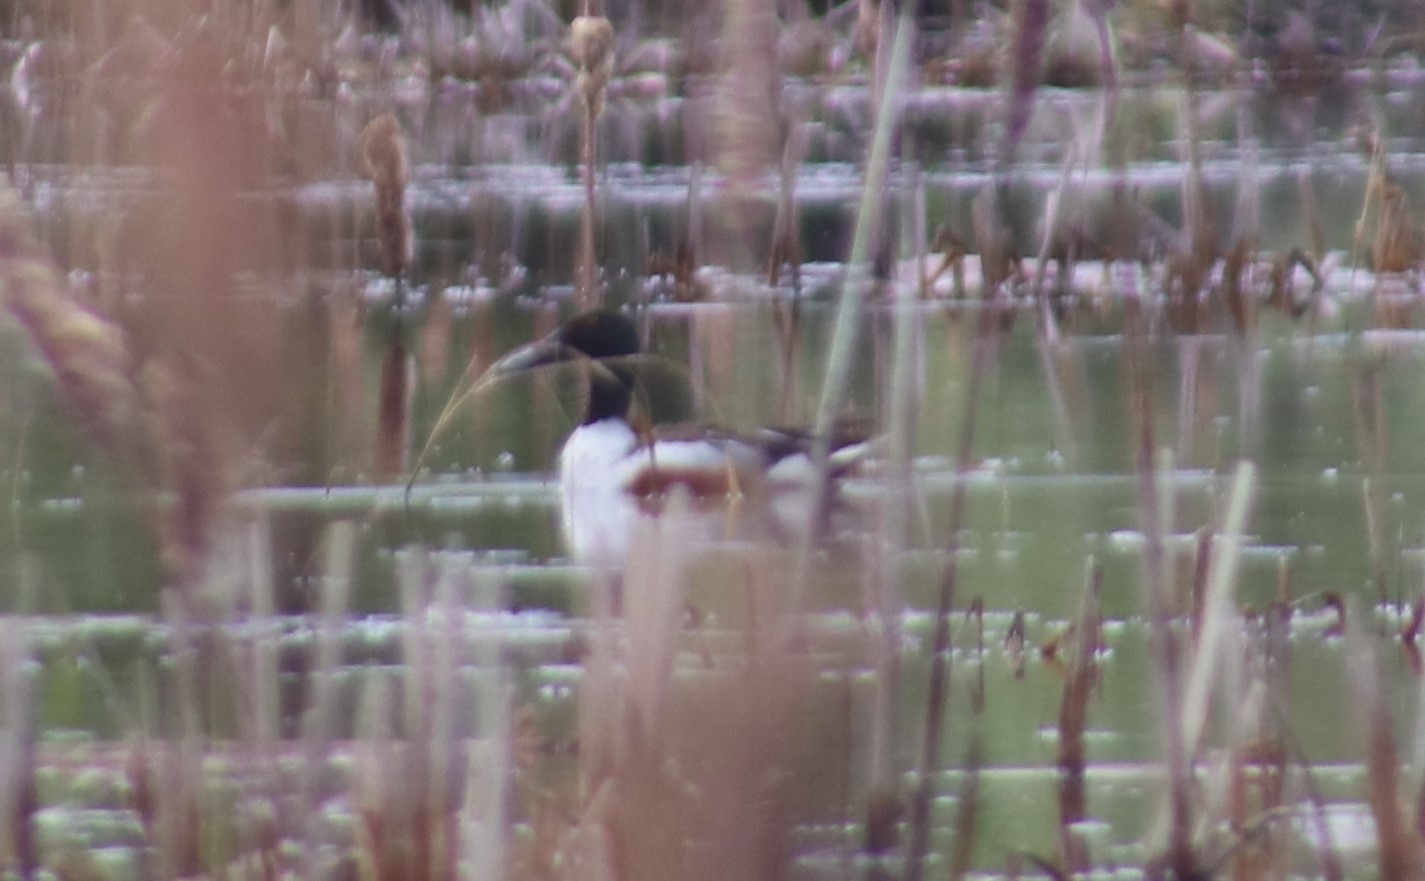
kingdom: Animalia
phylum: Chordata
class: Aves
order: Anseriformes
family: Anatidae
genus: Spatula
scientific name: Spatula clypeata
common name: Northern shoveler
